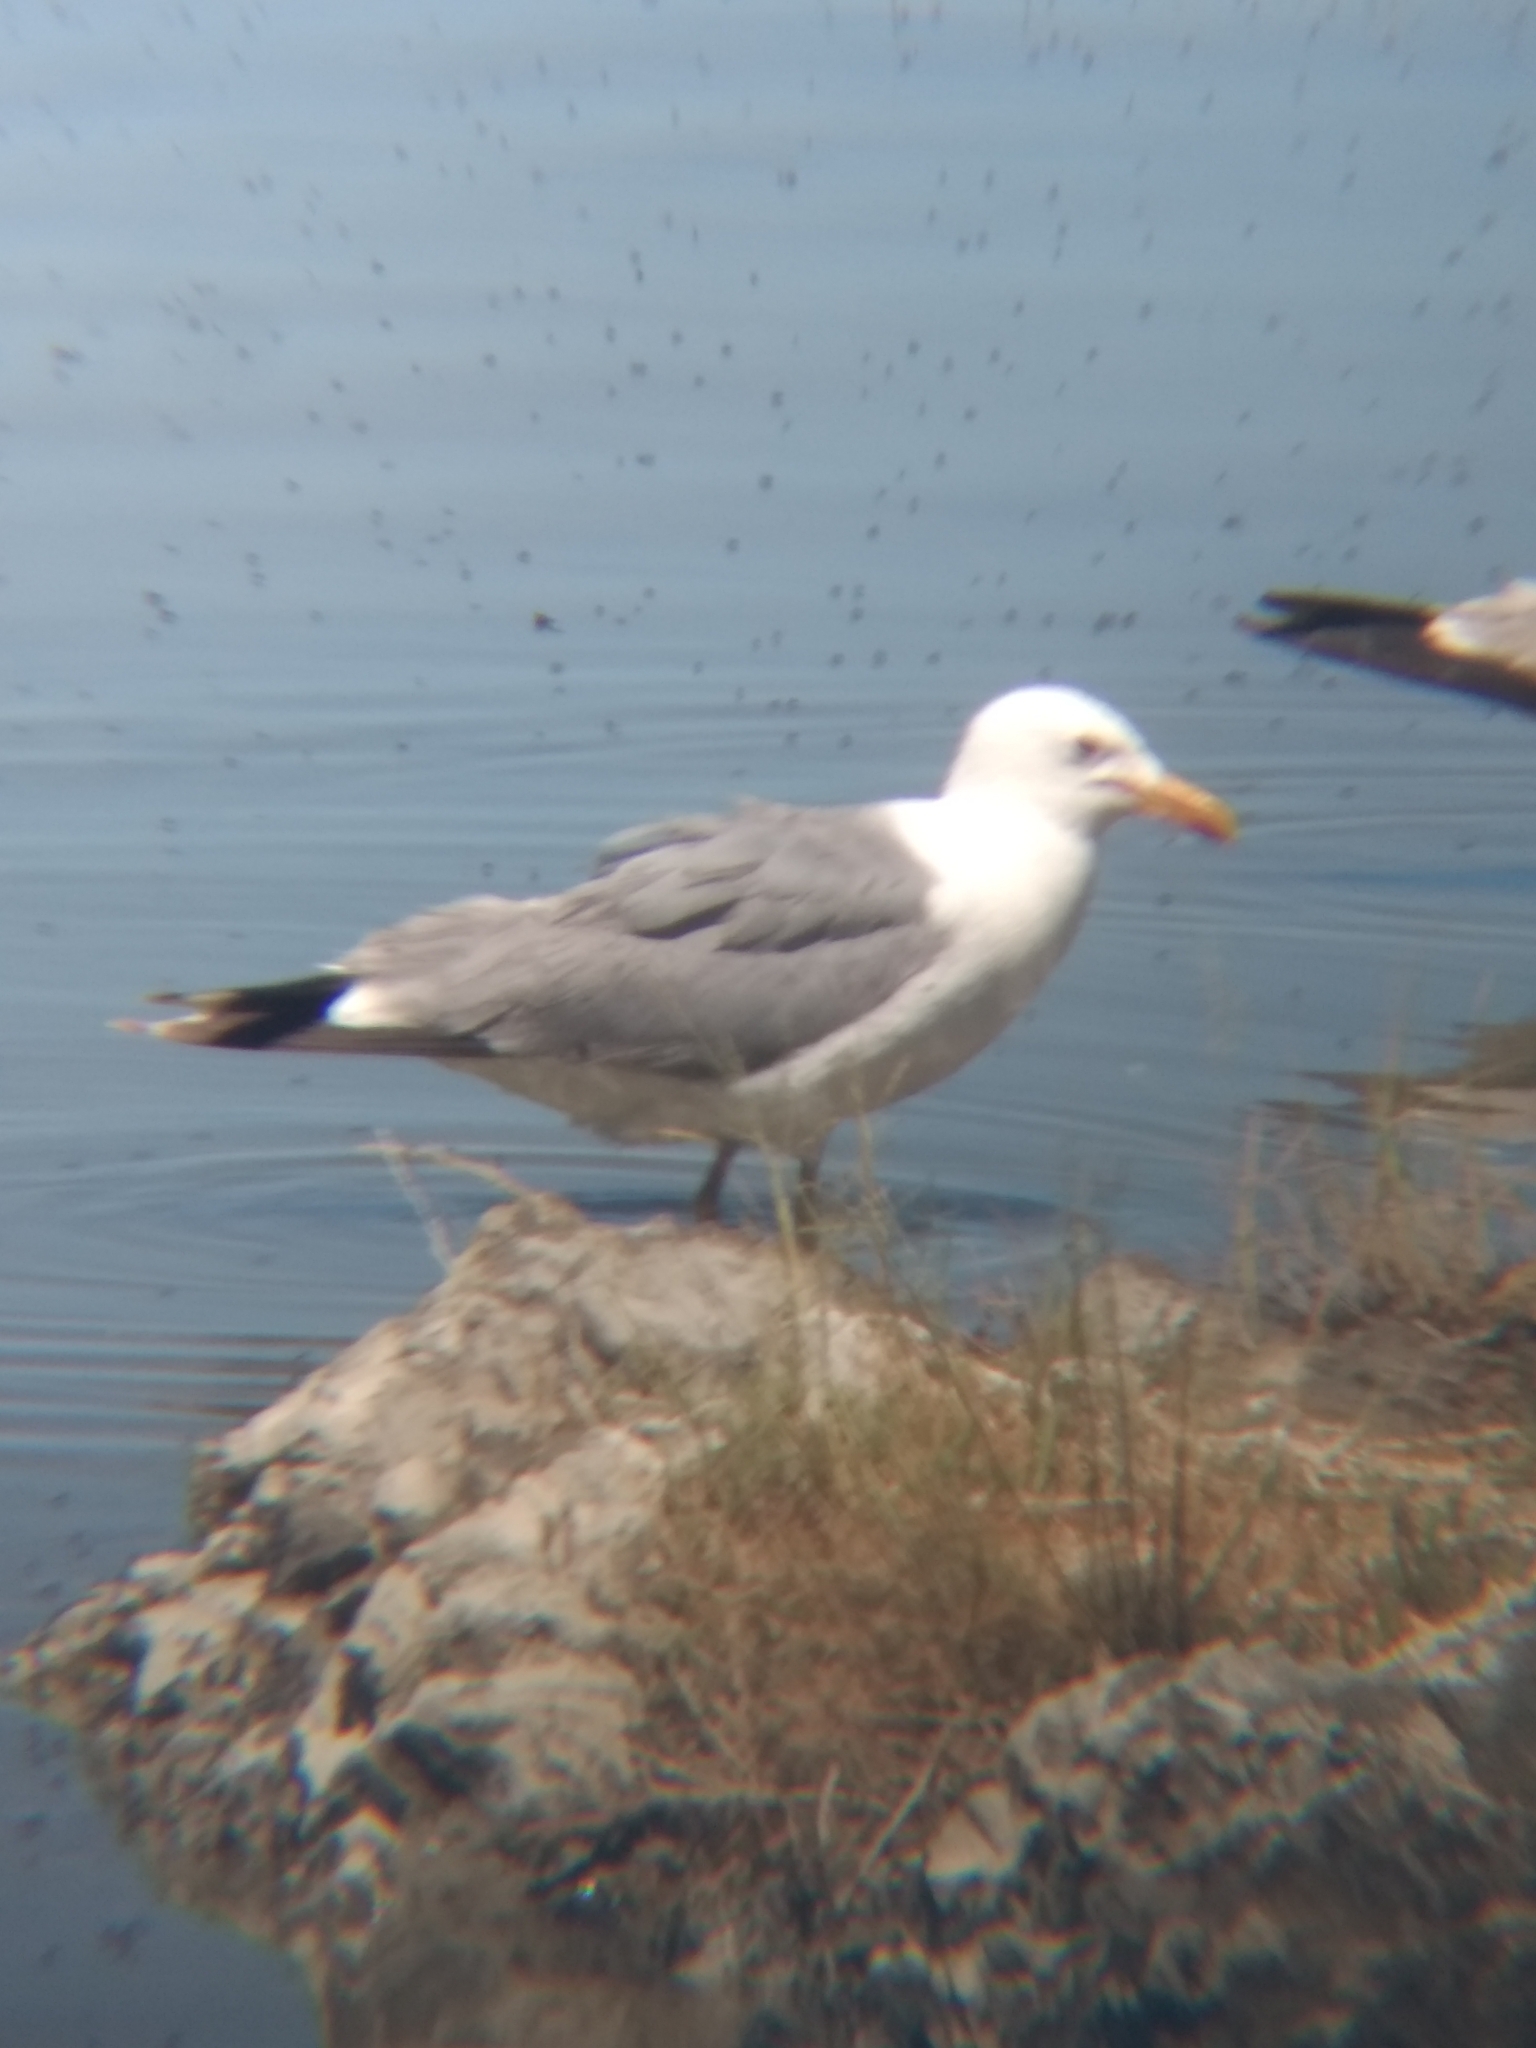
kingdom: Animalia
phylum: Chordata
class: Aves
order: Charadriiformes
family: Laridae
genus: Larus
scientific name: Larus californicus
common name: California gull
